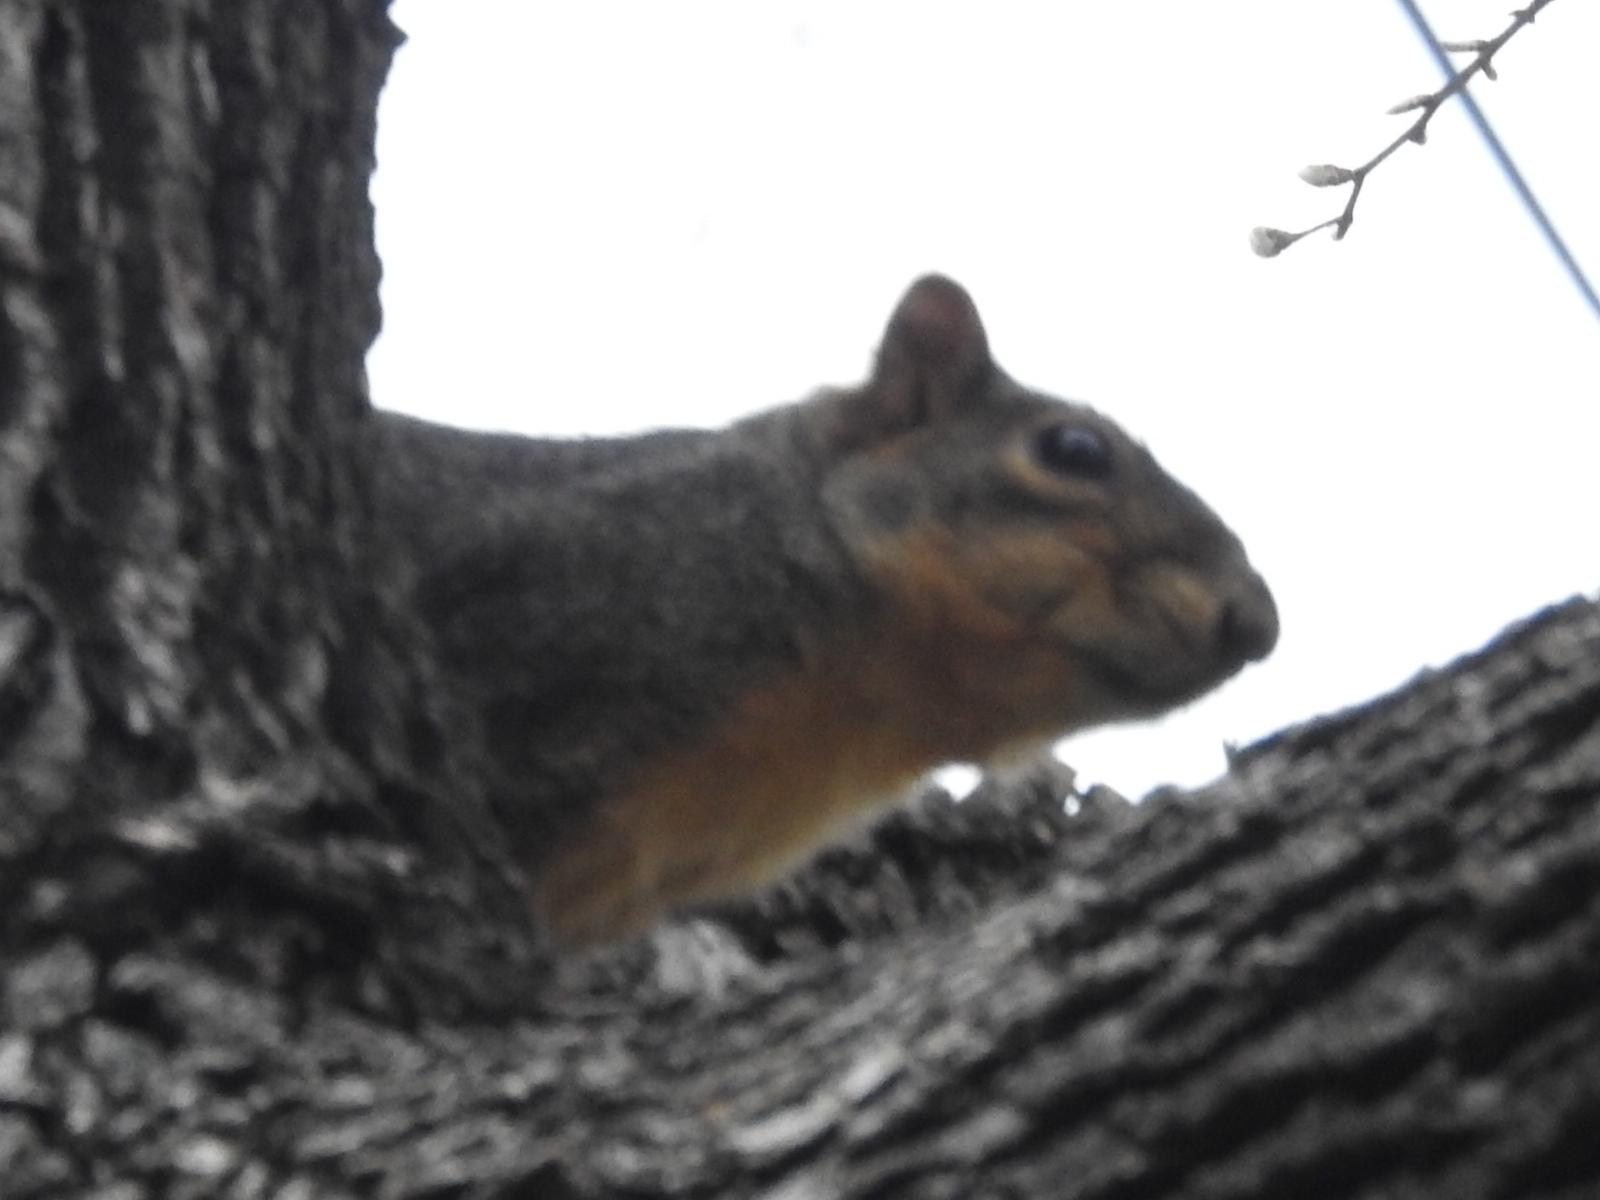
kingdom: Animalia
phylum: Chordata
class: Mammalia
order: Rodentia
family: Sciuridae
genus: Sciurus
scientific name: Sciurus niger
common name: Fox squirrel
